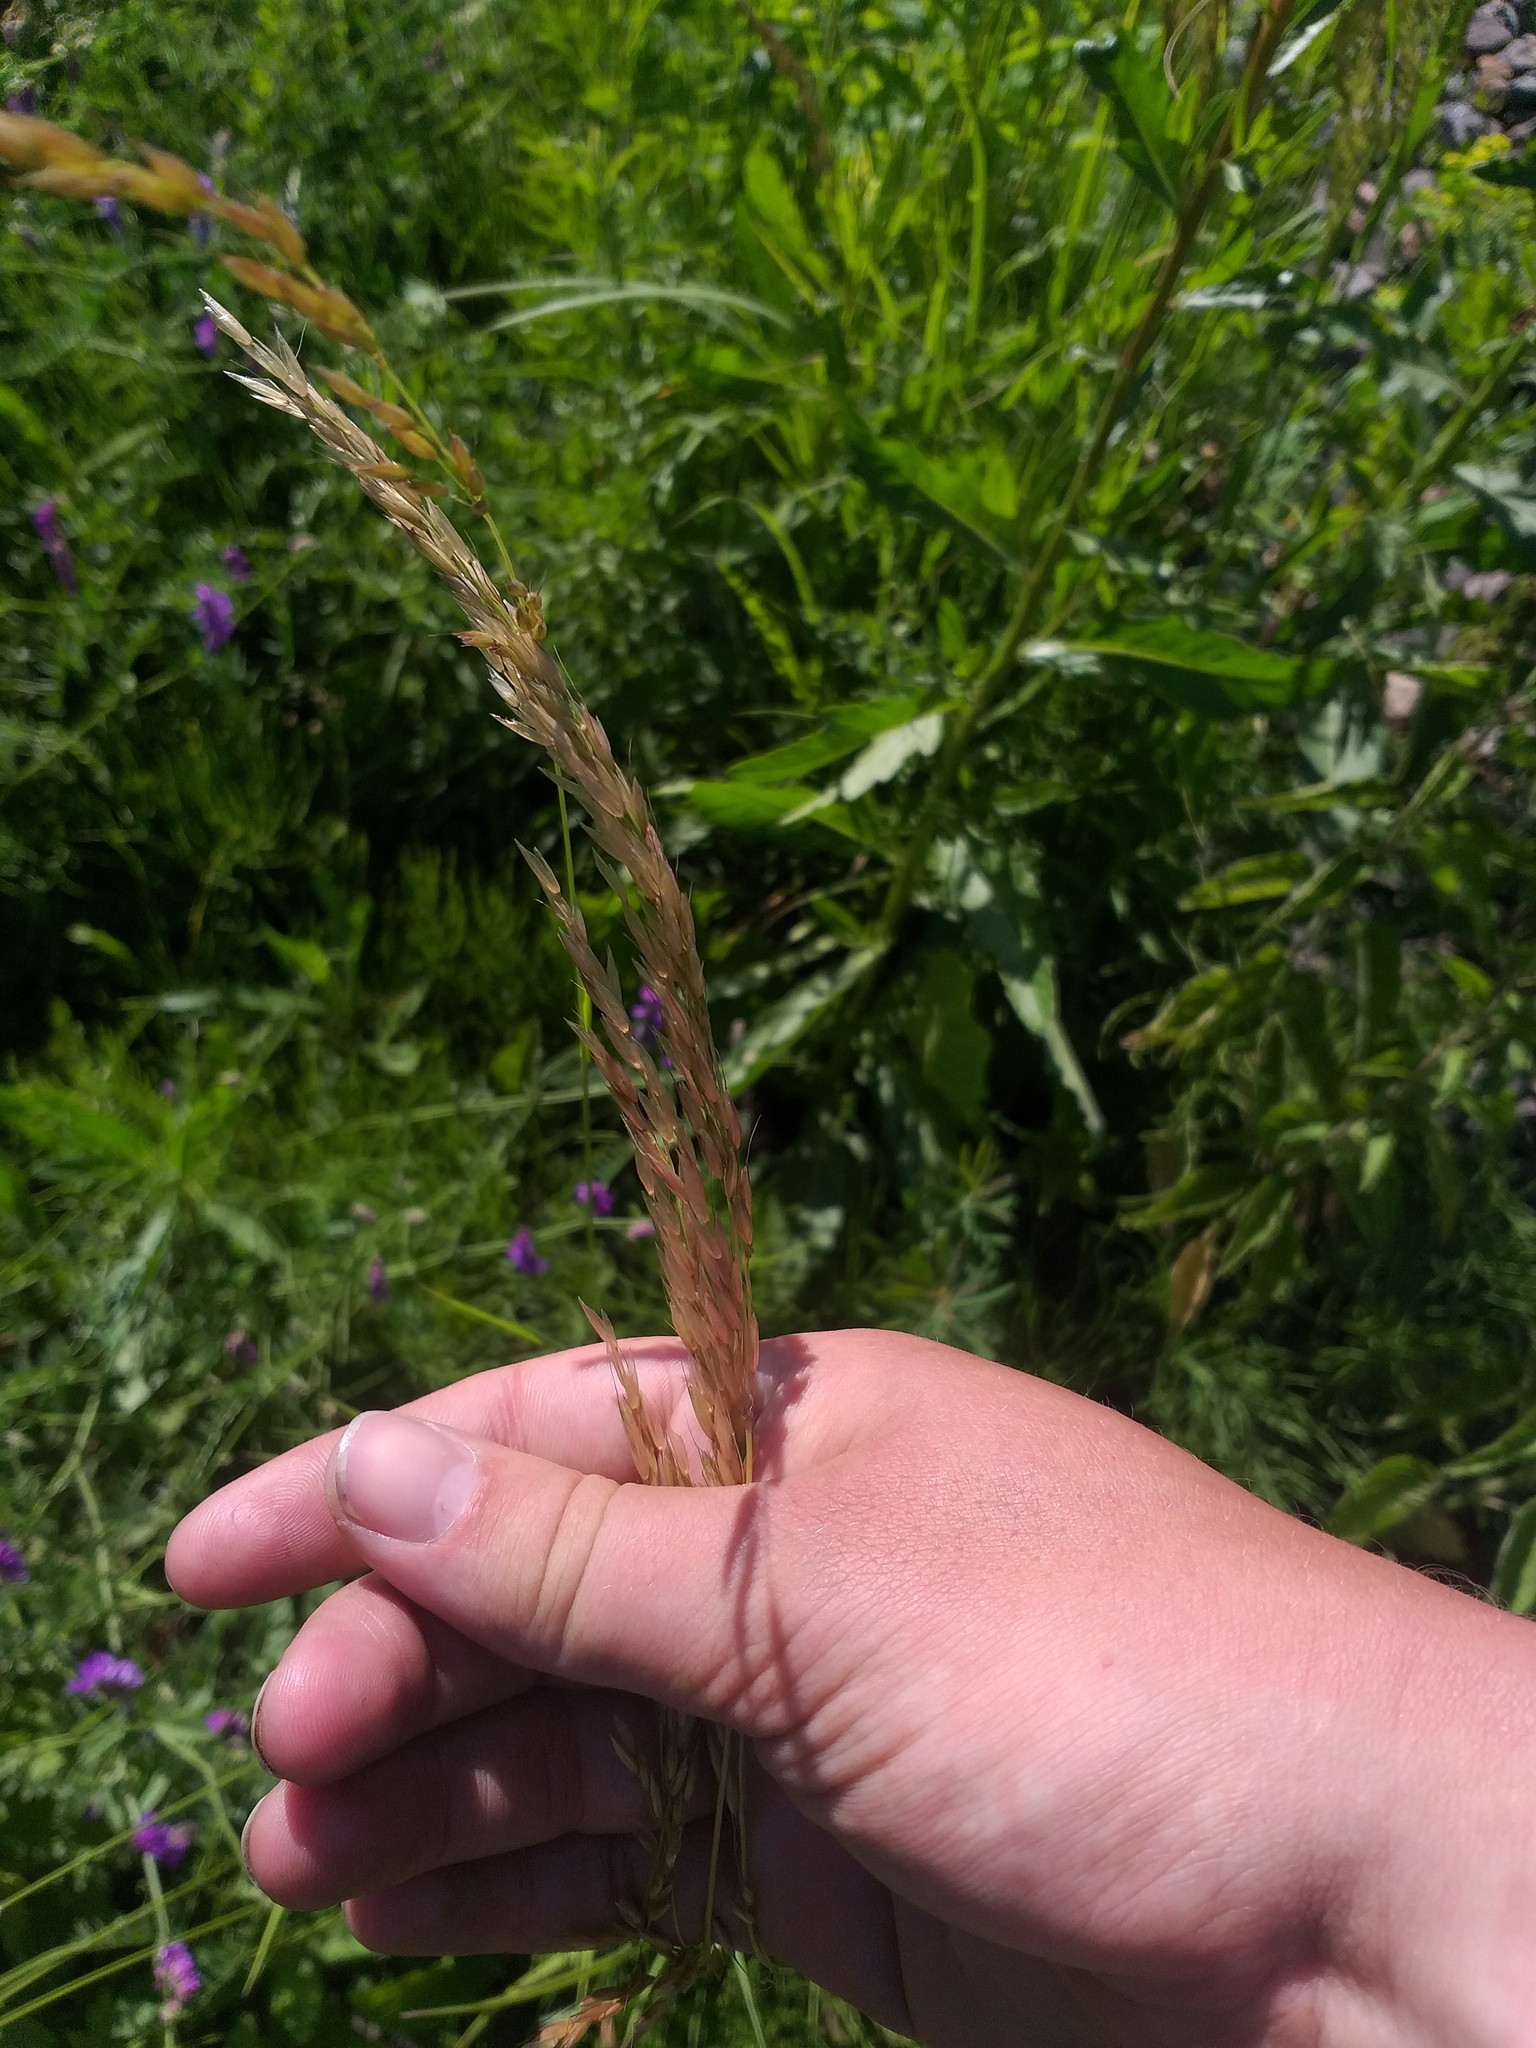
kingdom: Plantae
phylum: Tracheophyta
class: Liliopsida
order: Poales
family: Poaceae
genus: Arrhenatherum
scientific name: Arrhenatherum elatius
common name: Tall oatgrass
